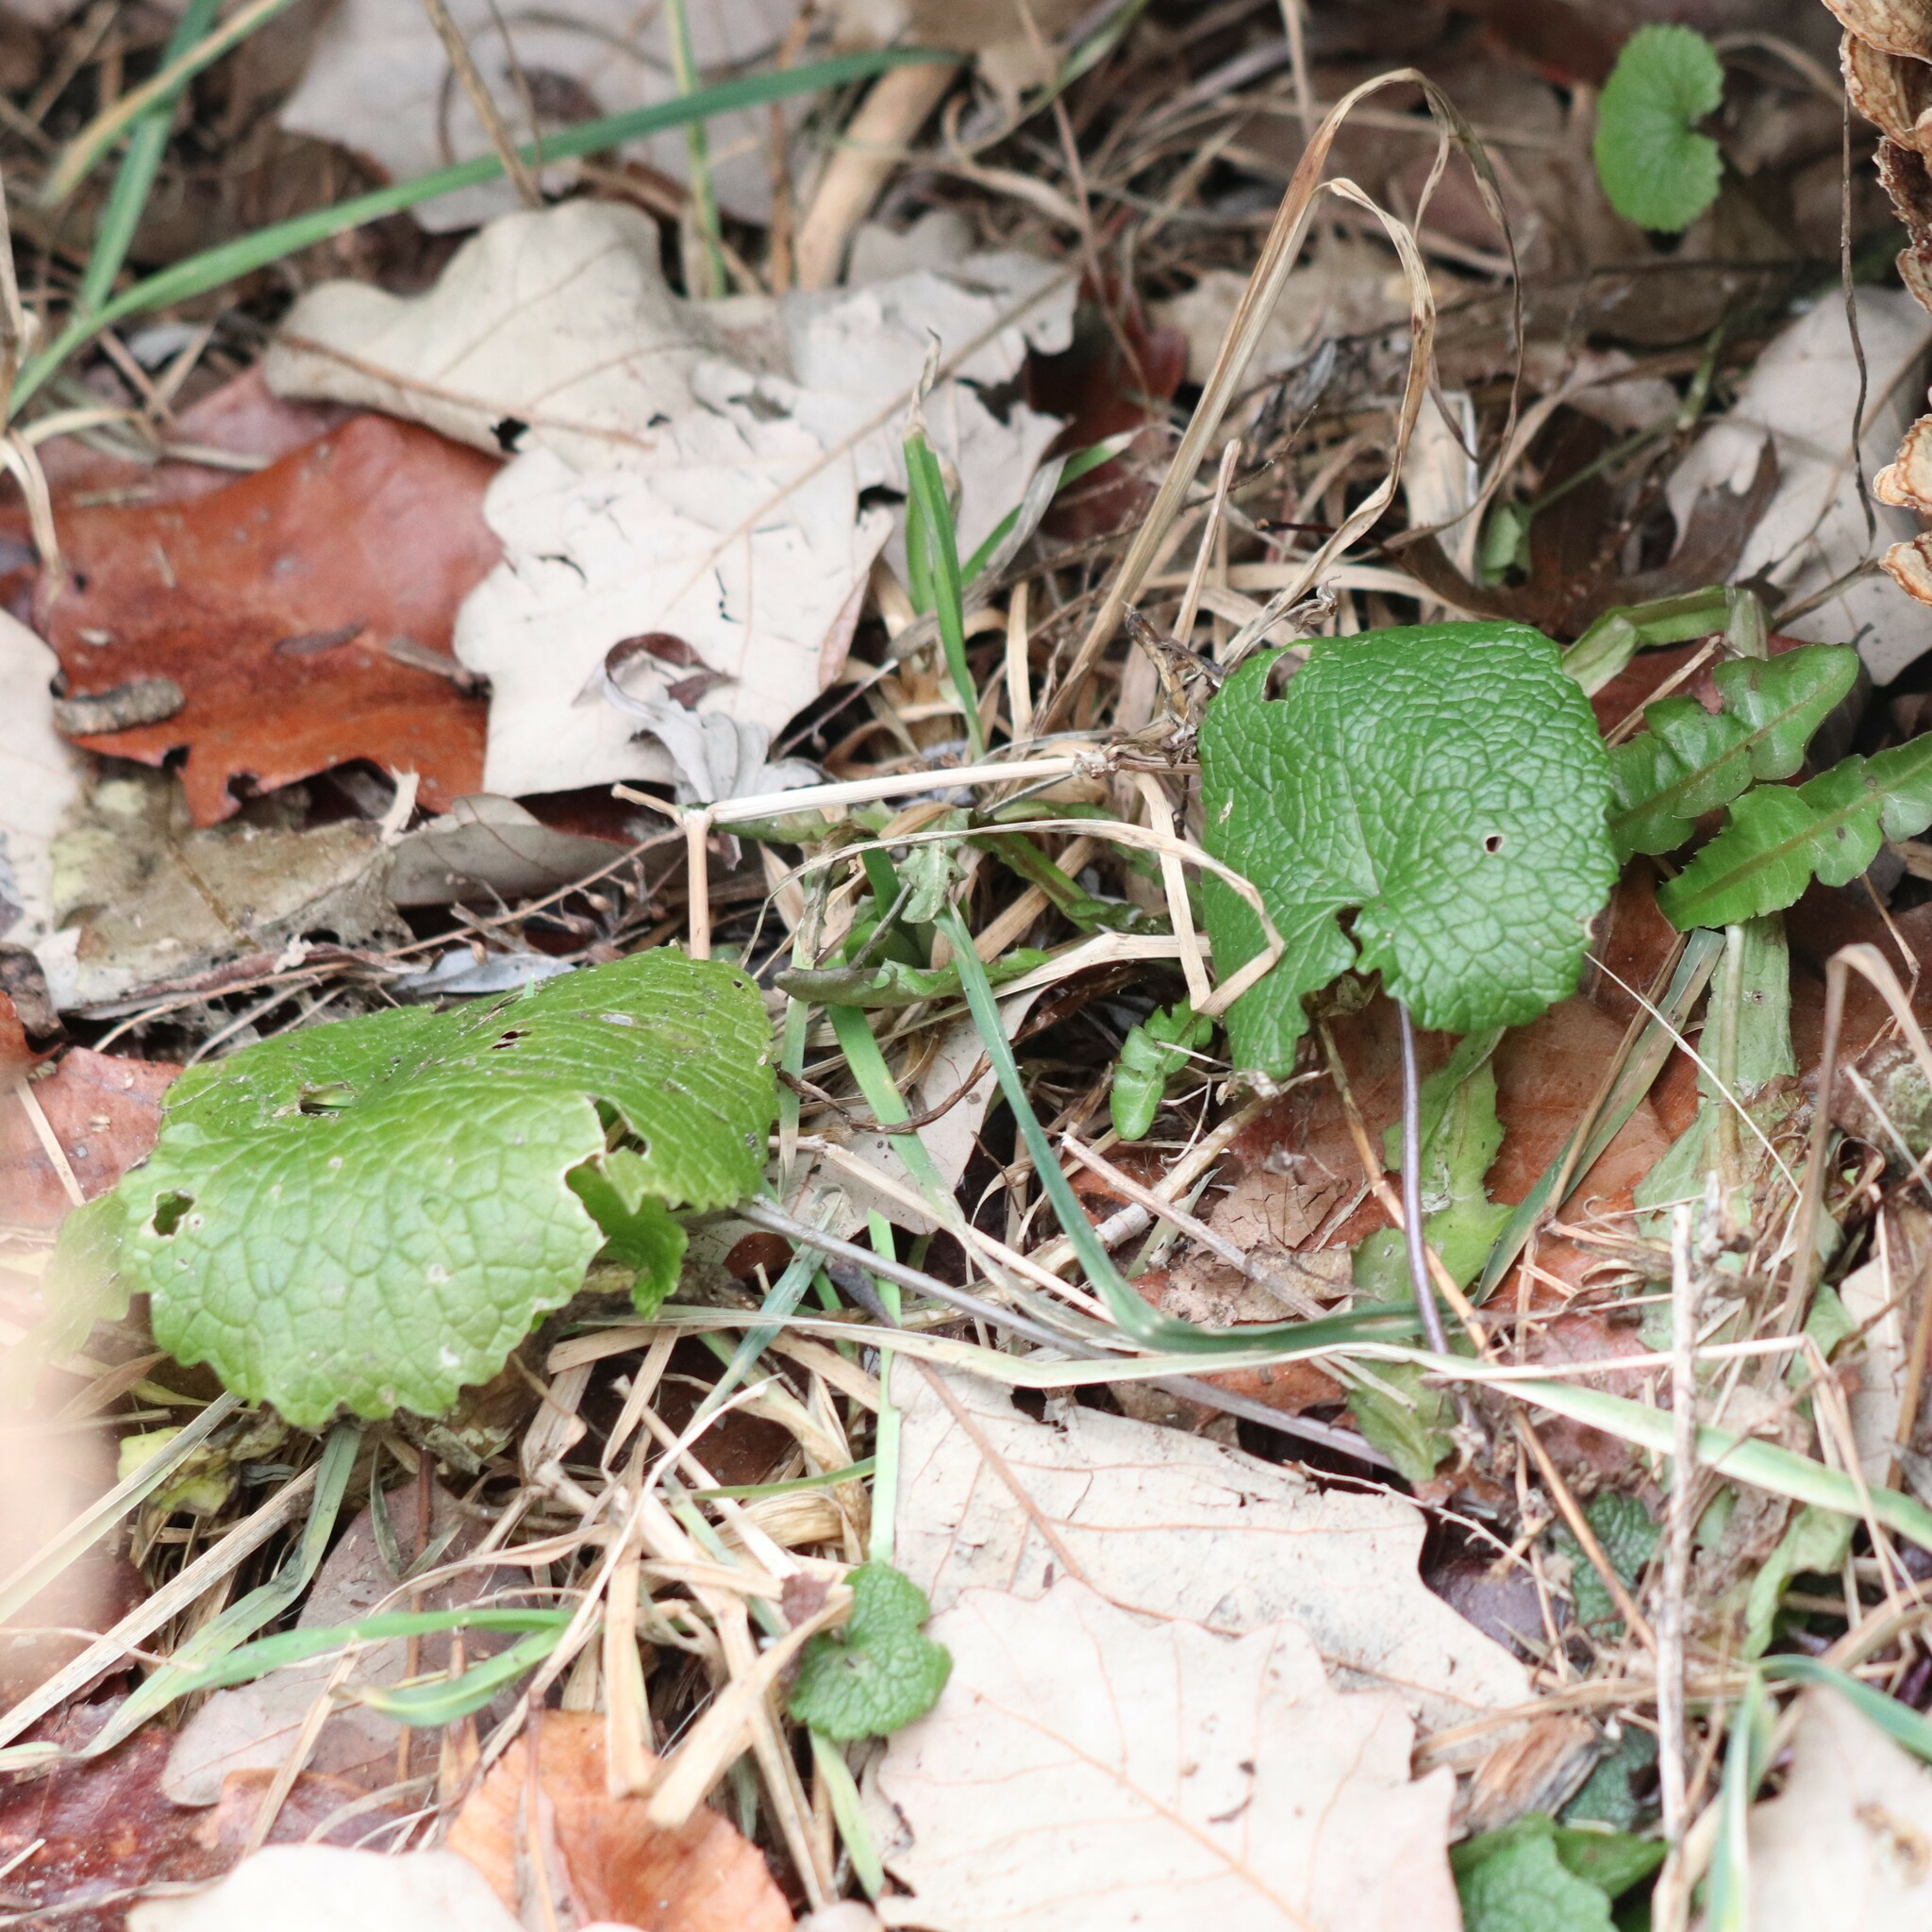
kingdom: Plantae
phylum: Tracheophyta
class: Magnoliopsida
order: Brassicales
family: Brassicaceae
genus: Alliaria
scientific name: Alliaria petiolata
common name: Garlic mustard
